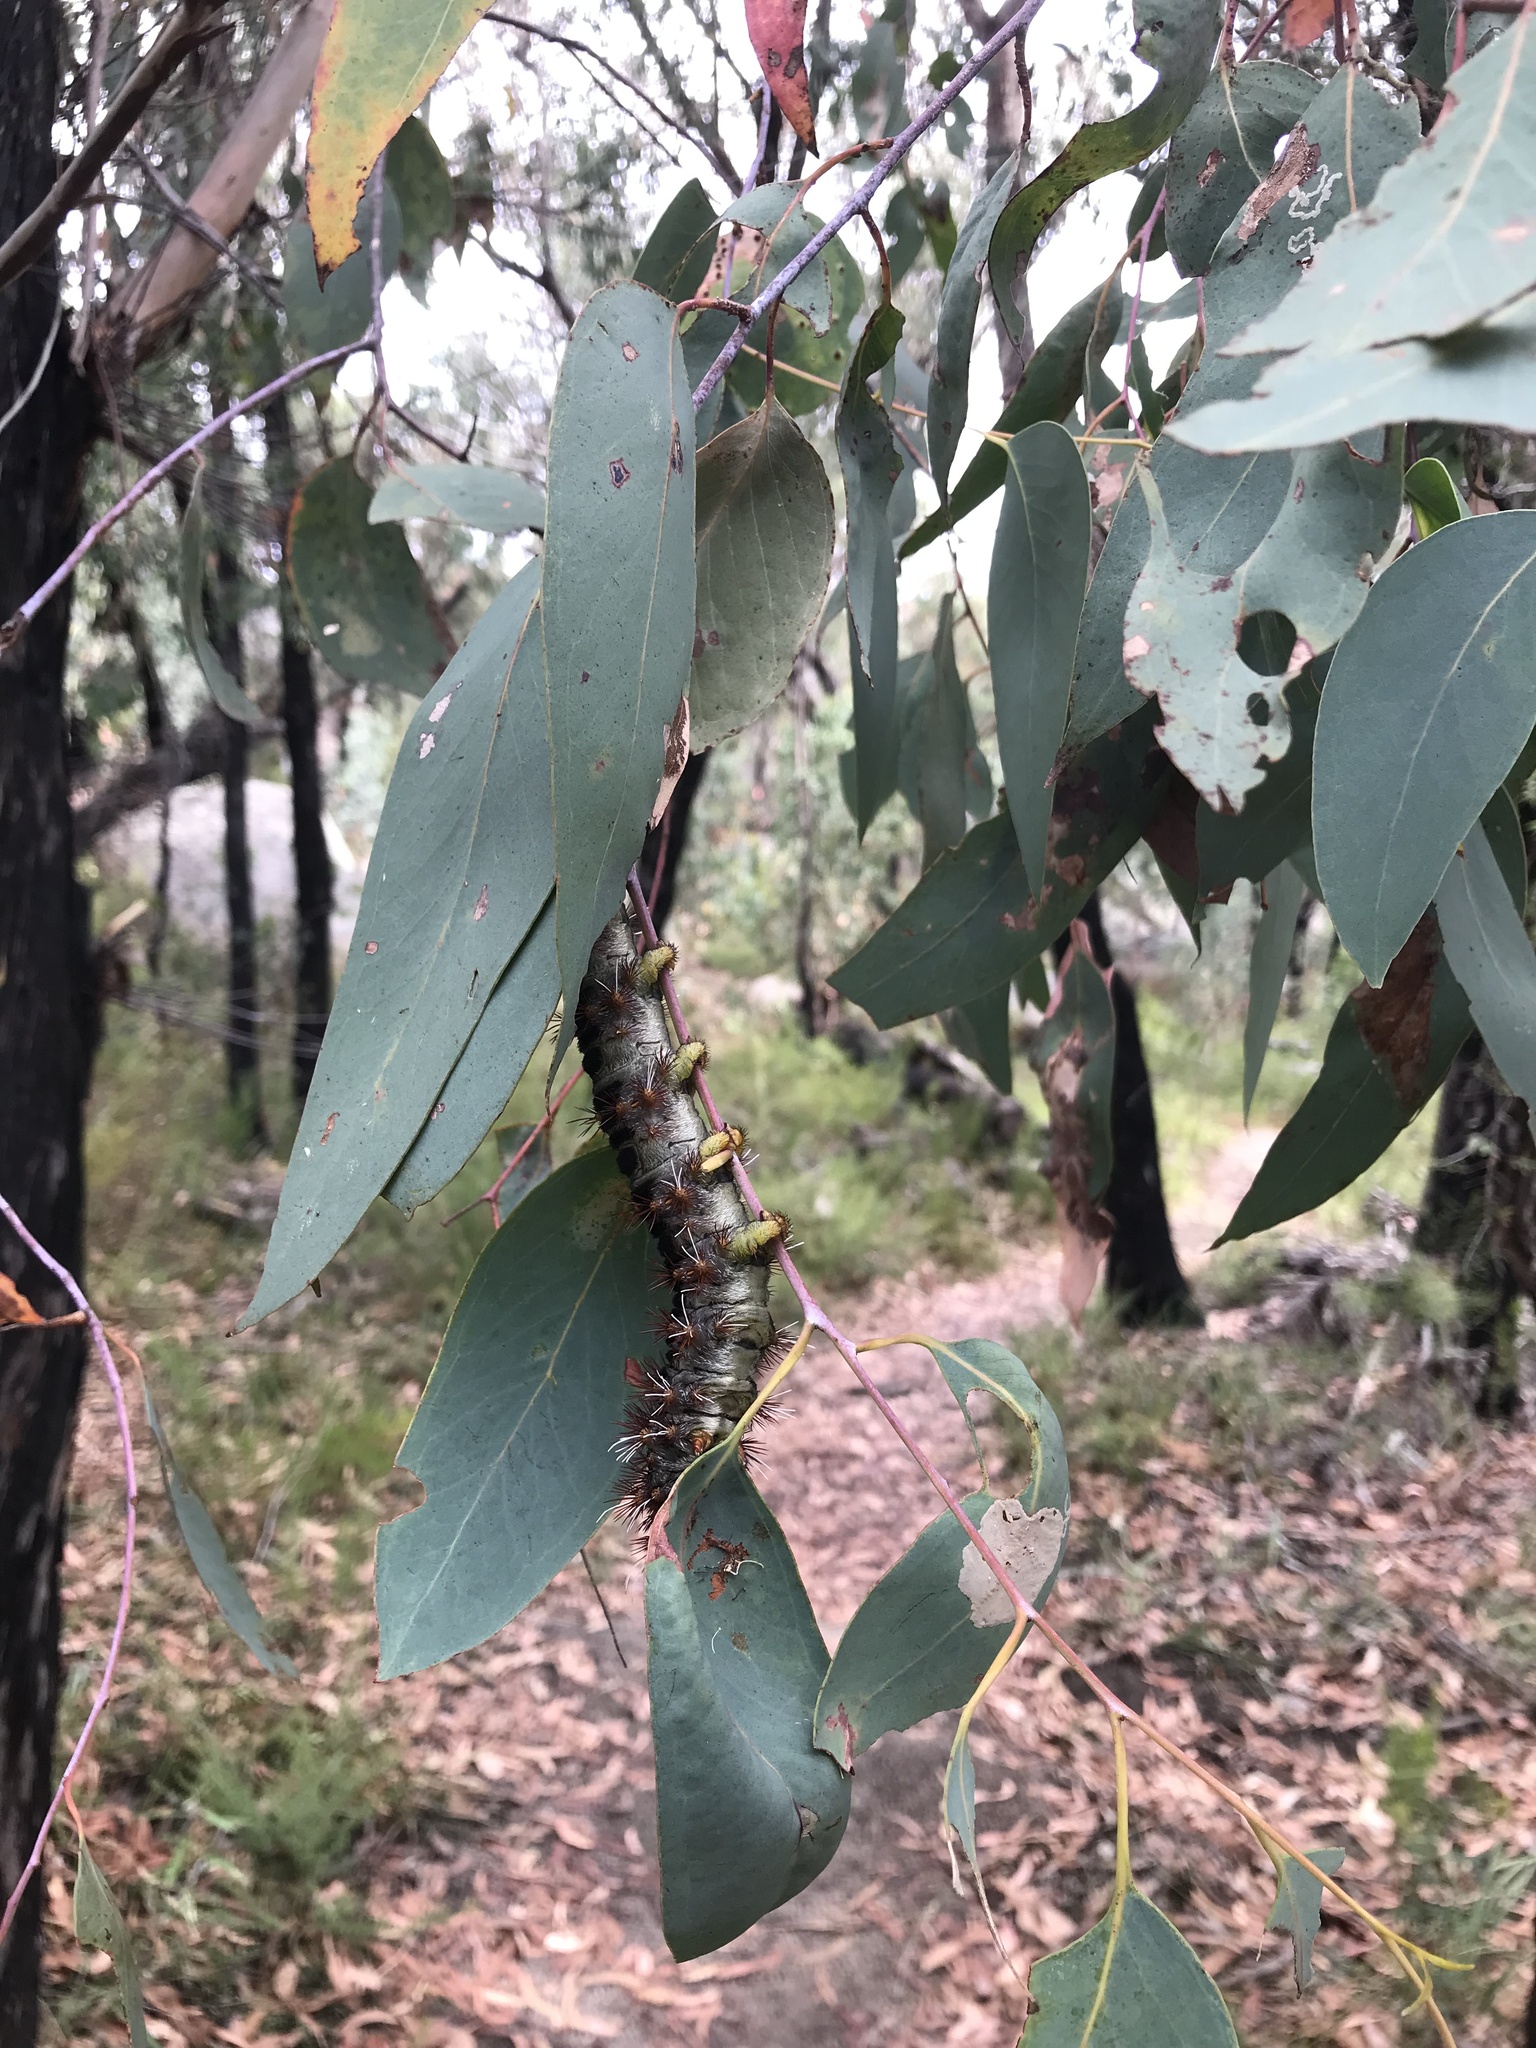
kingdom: Animalia
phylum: Arthropoda
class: Insecta
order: Lepidoptera
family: Anthelidae
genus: Chelepteryx
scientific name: Chelepteryx collesi
